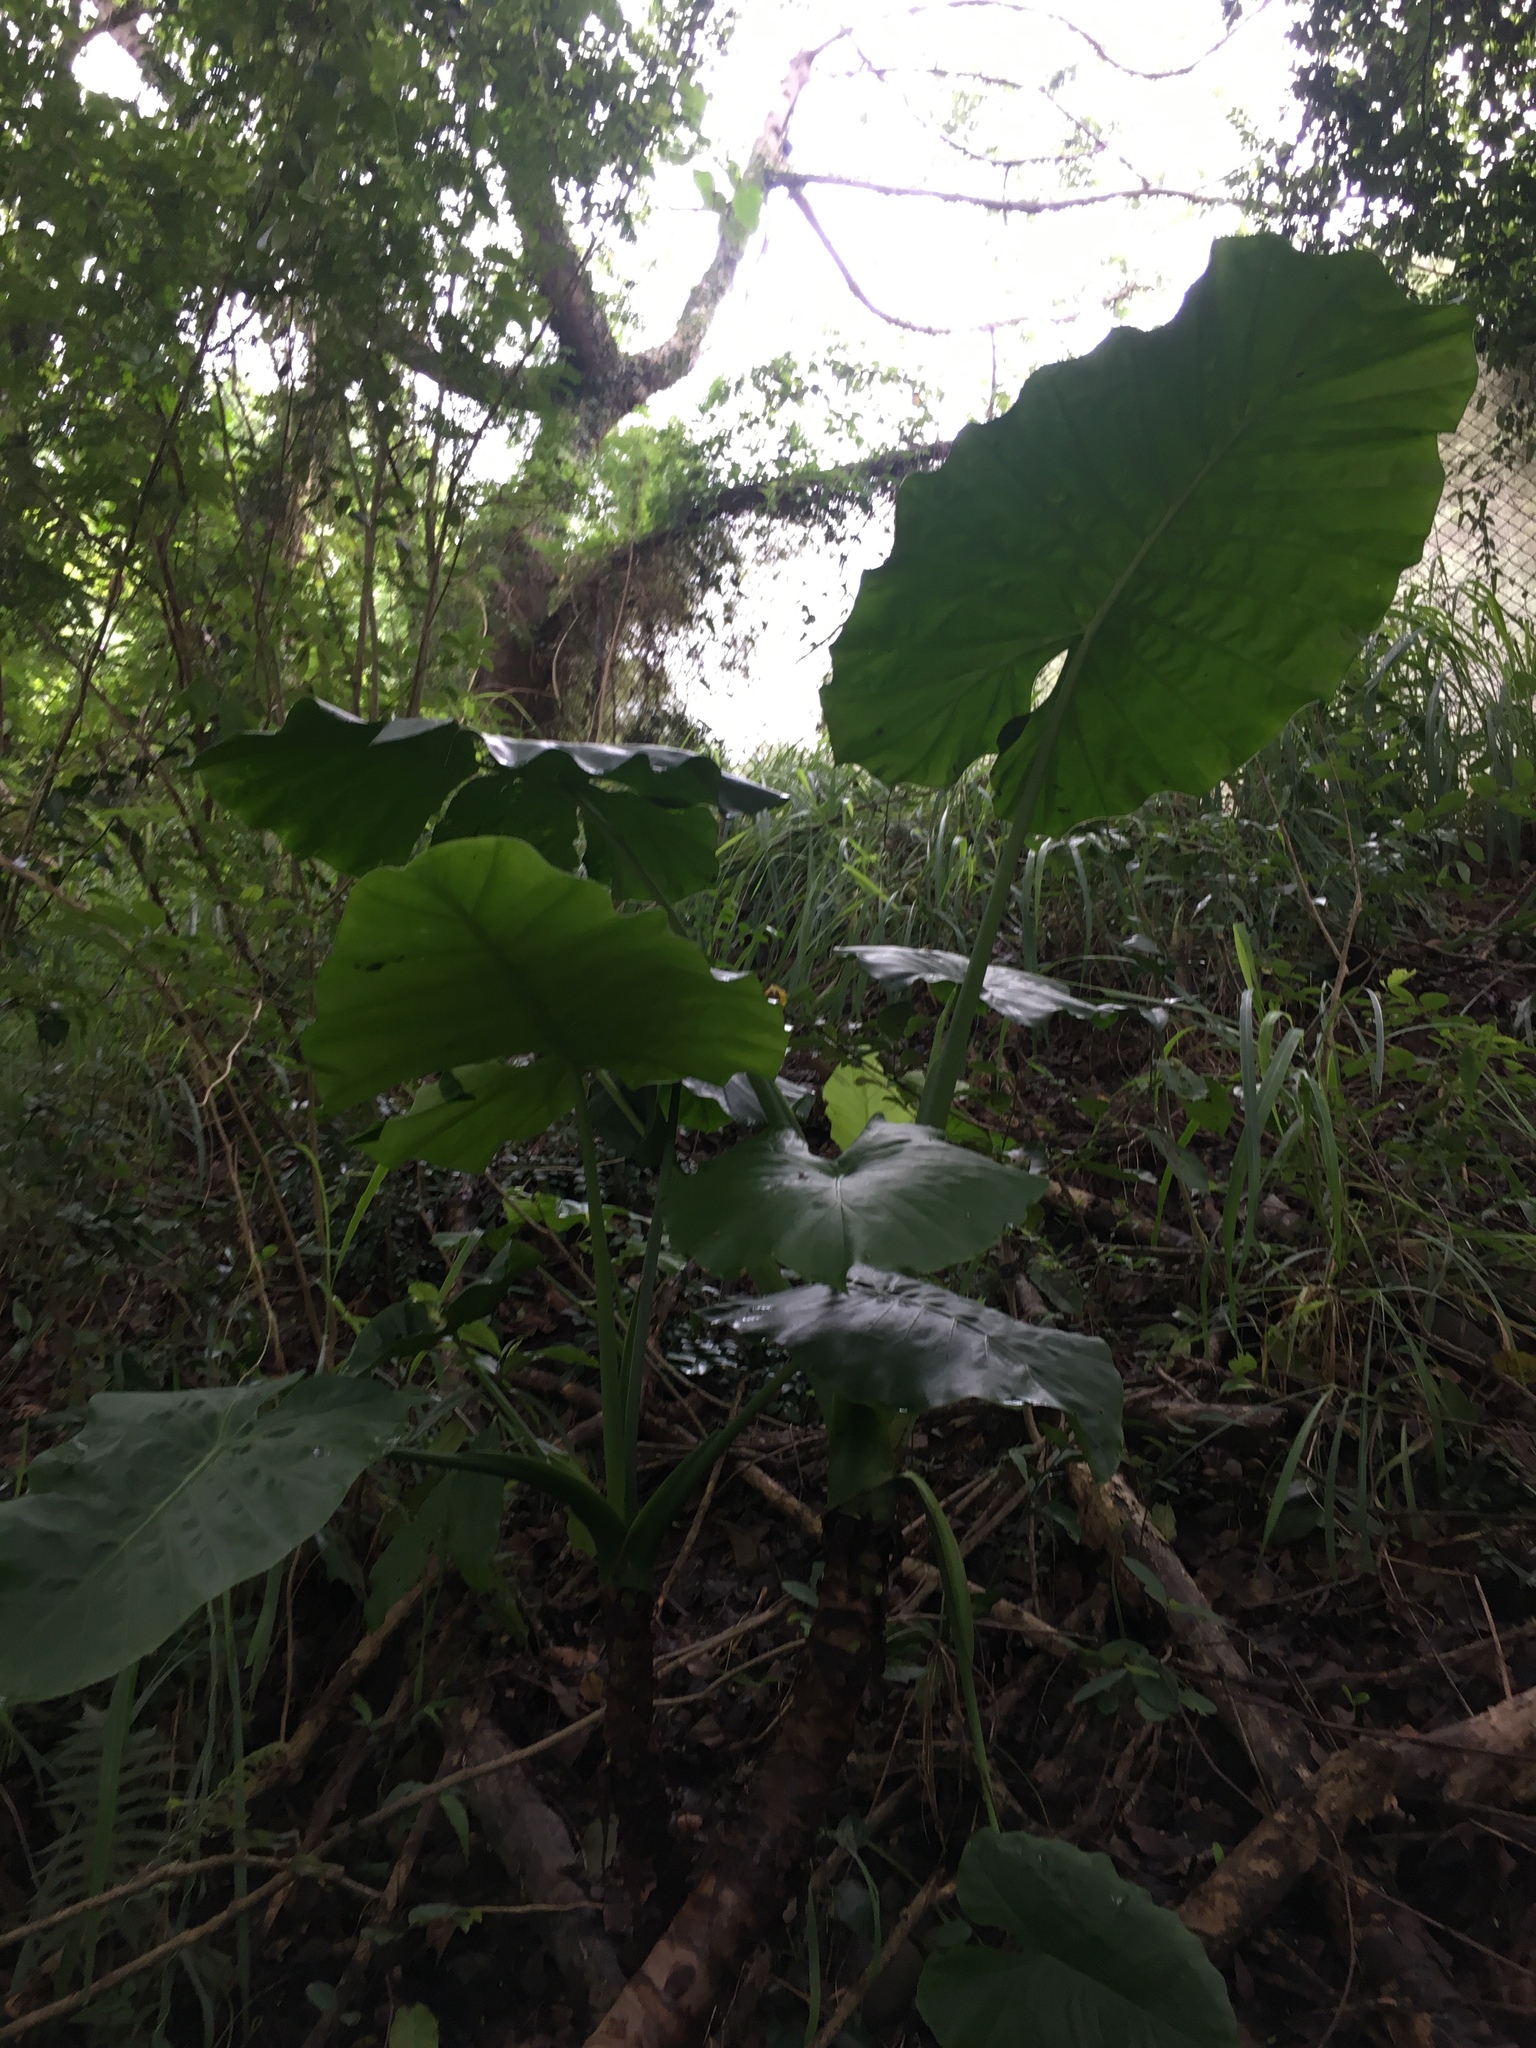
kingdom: Plantae
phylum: Tracheophyta
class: Liliopsida
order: Alismatales
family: Araceae
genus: Alocasia
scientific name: Alocasia odora
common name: Asian taro
